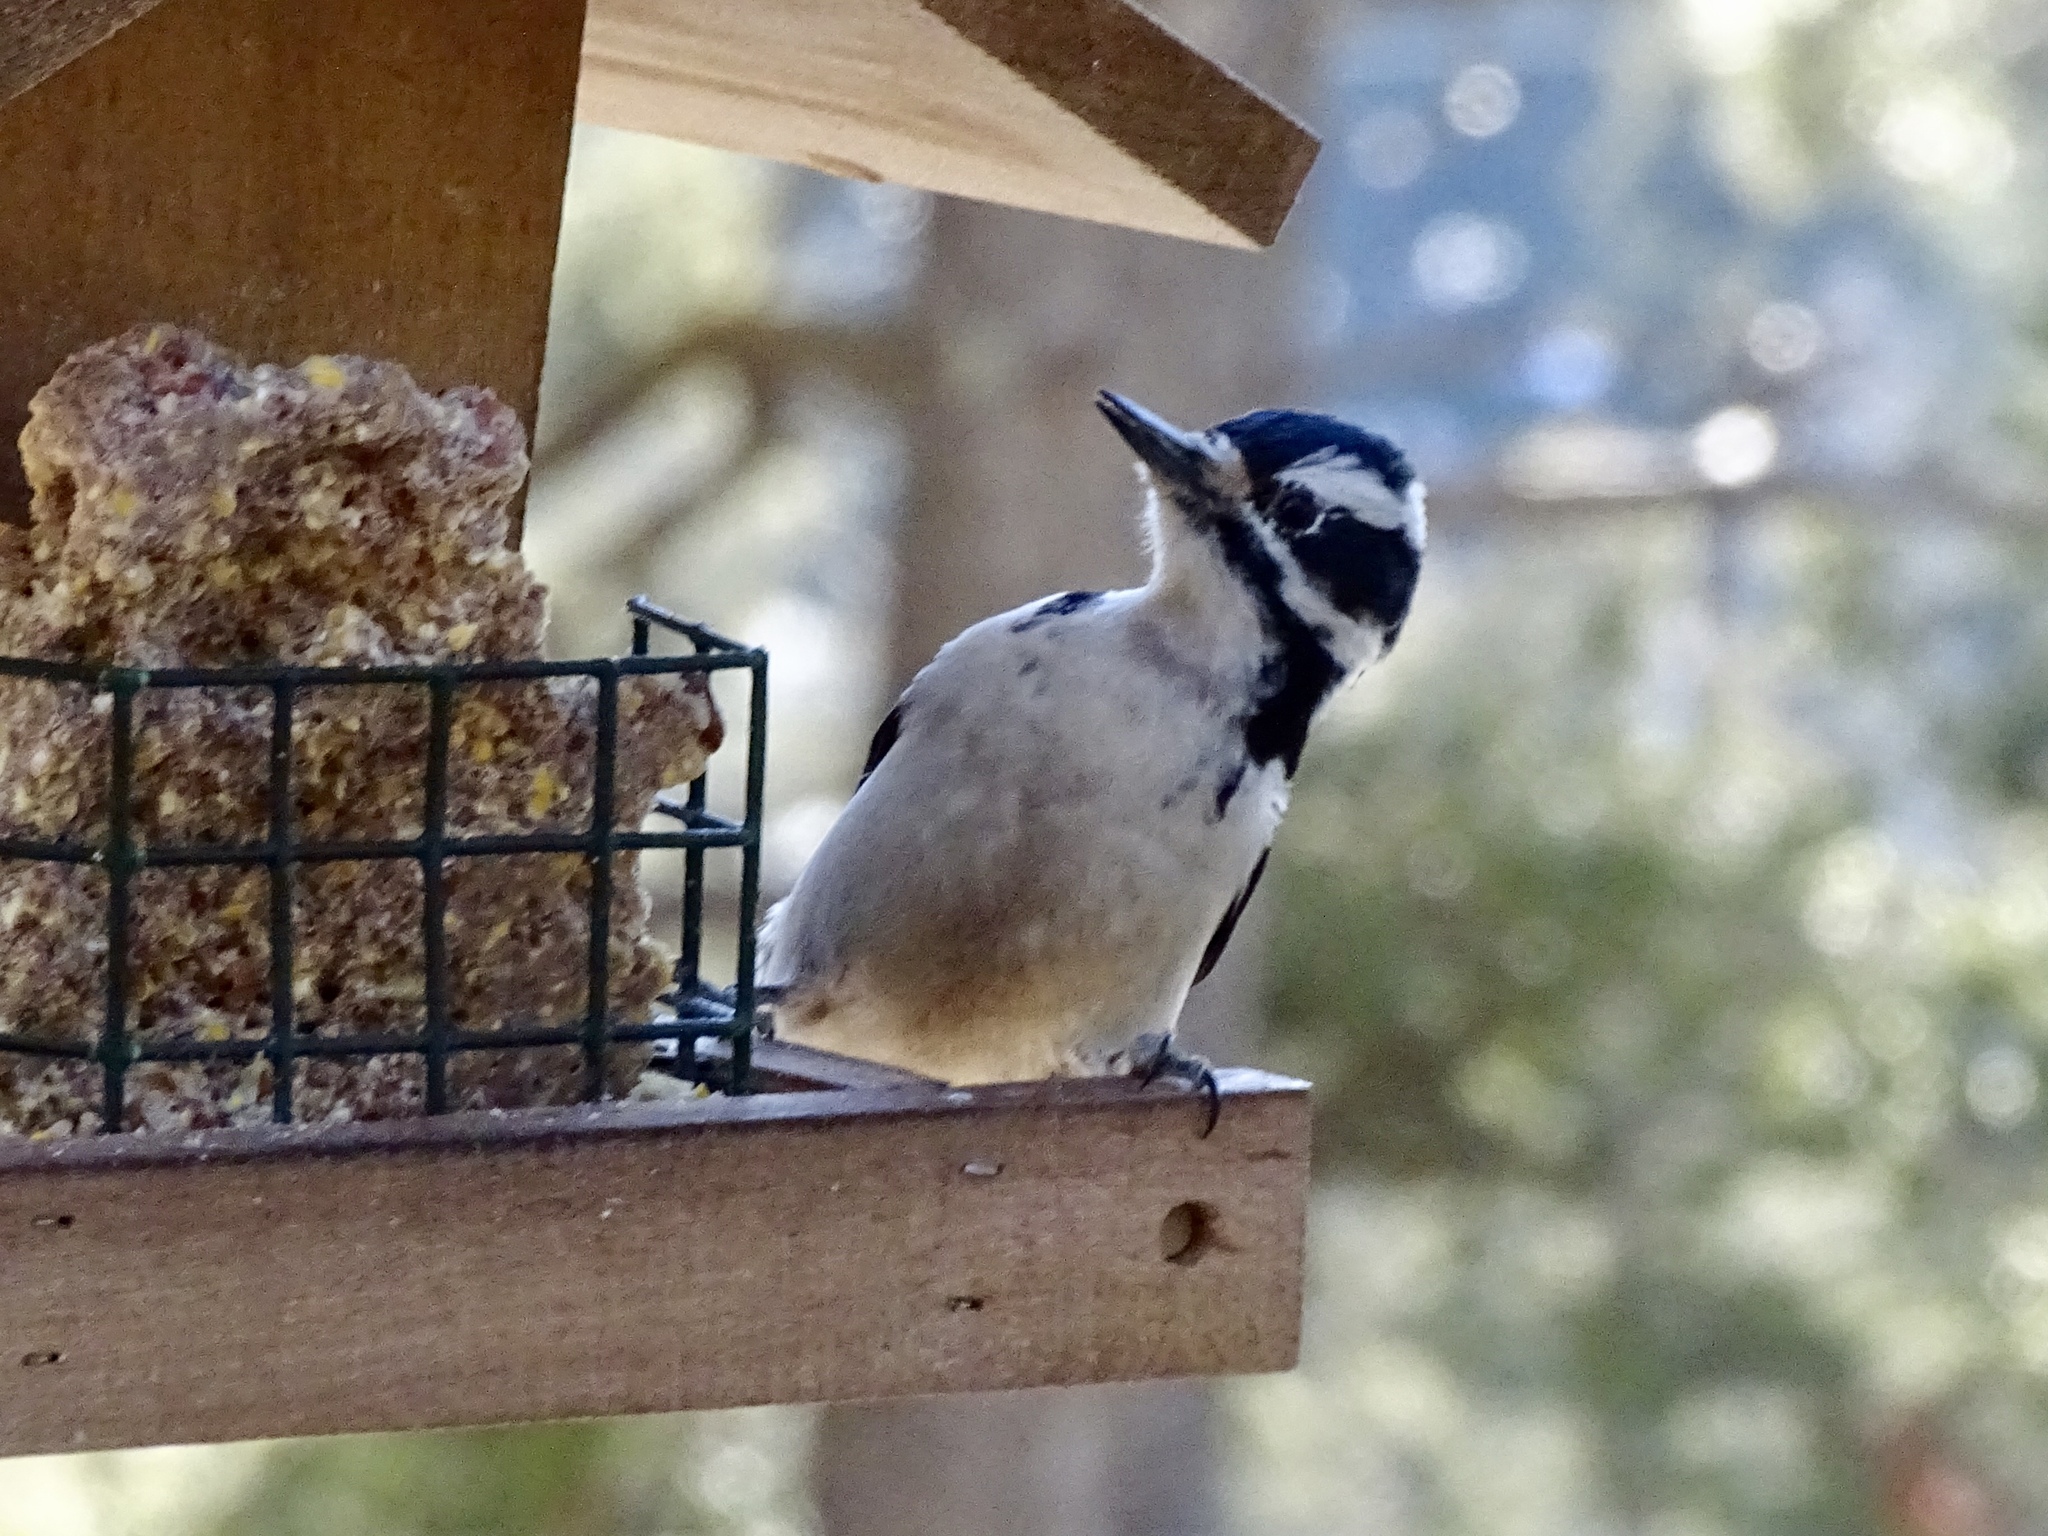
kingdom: Animalia
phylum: Chordata
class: Aves
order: Piciformes
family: Picidae
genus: Leuconotopicus
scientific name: Leuconotopicus villosus
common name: Hairy woodpecker
